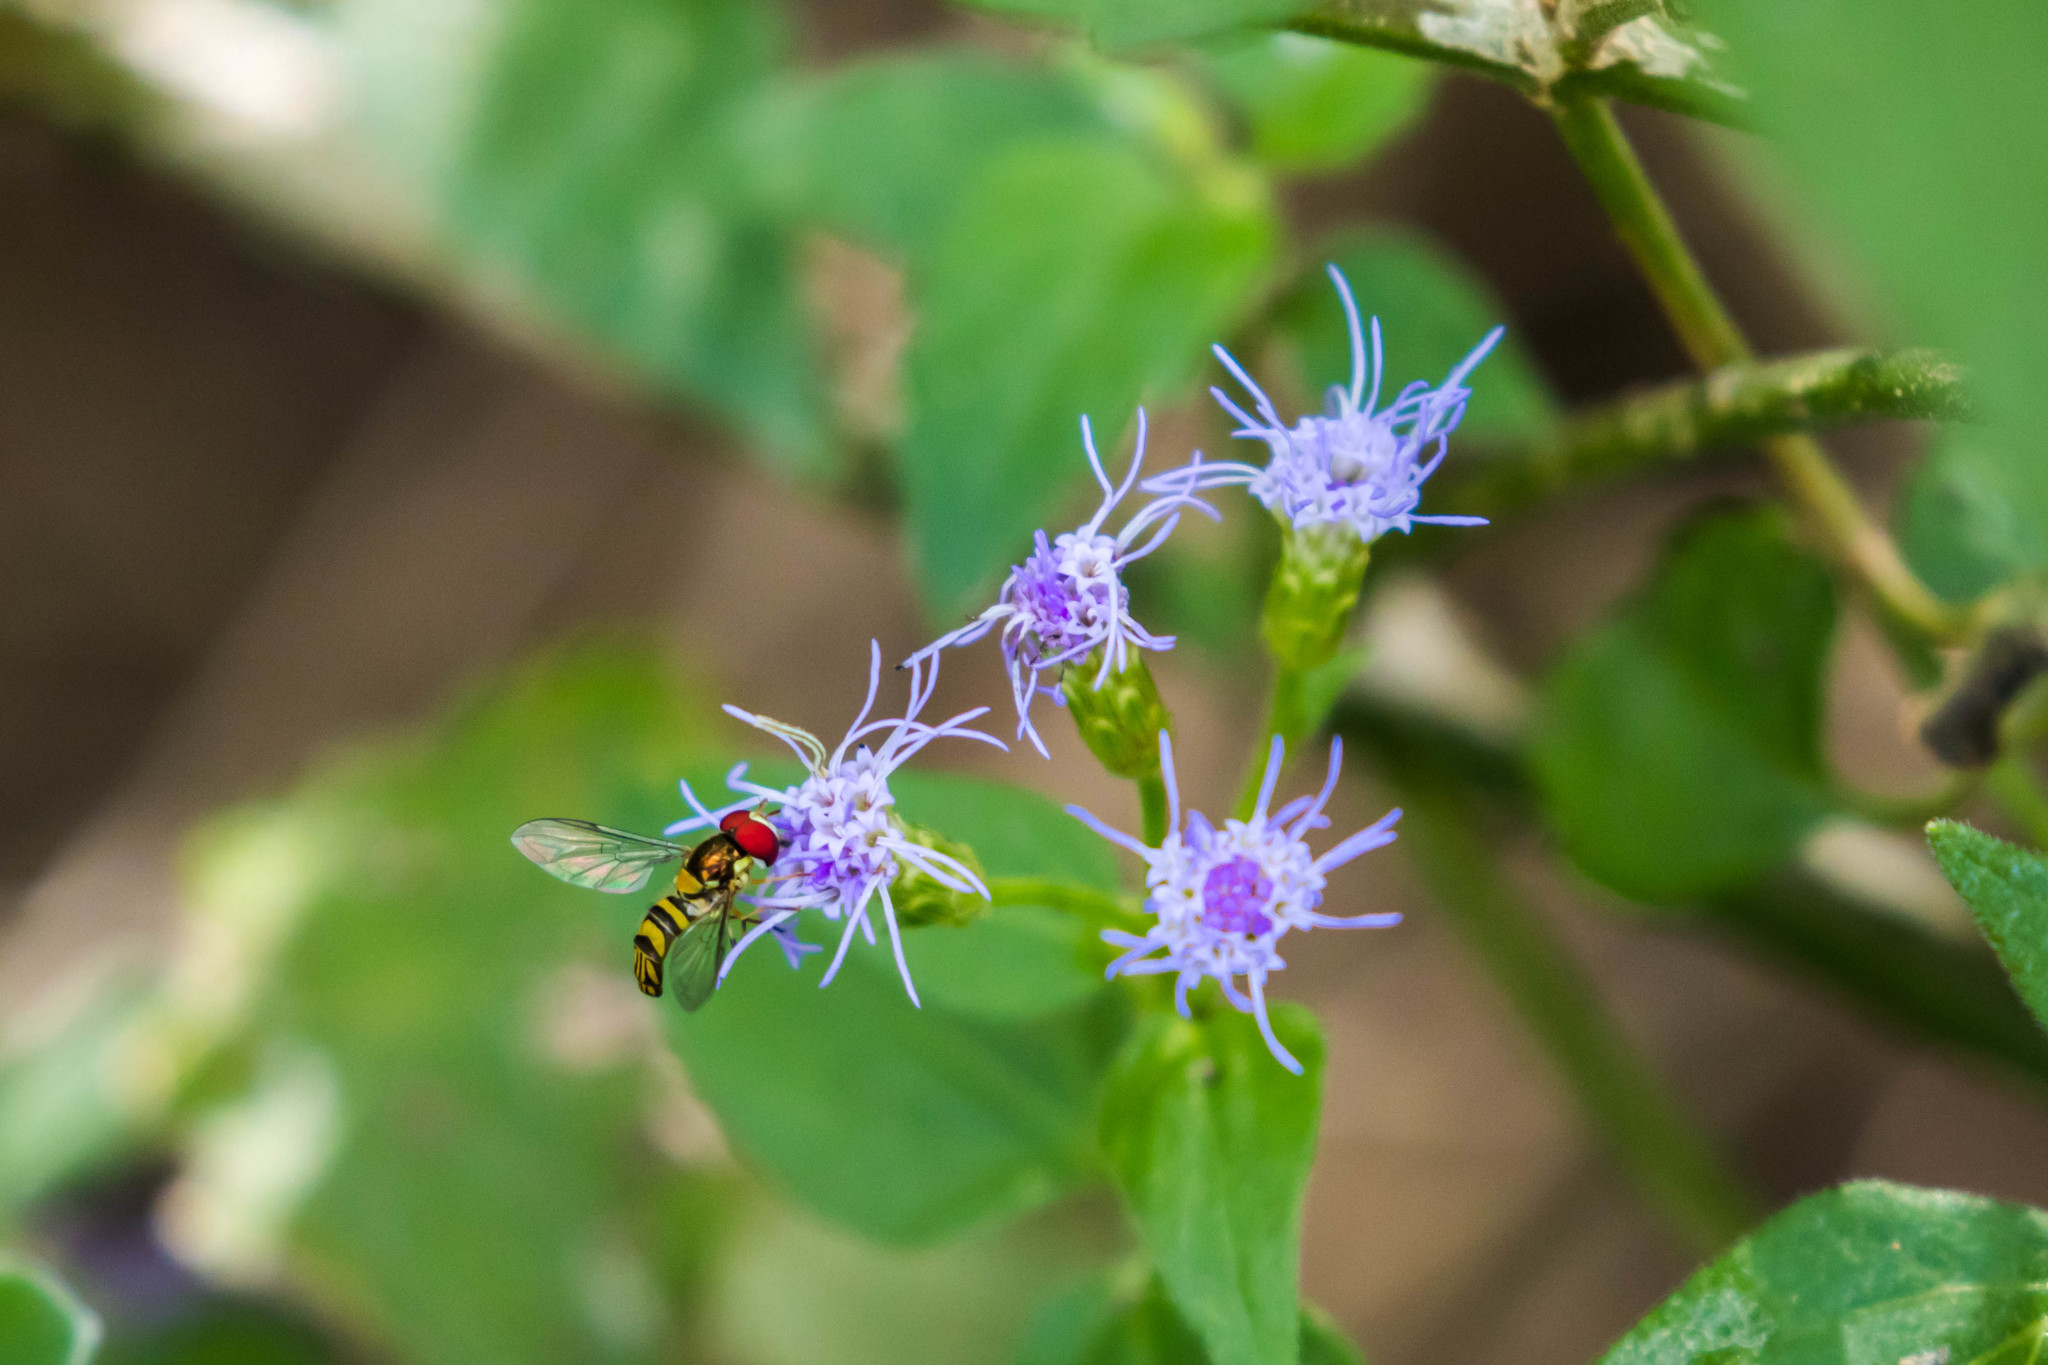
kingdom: Animalia
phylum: Arthropoda
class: Insecta
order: Diptera
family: Syrphidae
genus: Allograpta
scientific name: Allograpta obliqua
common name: Common oblique syrphid
